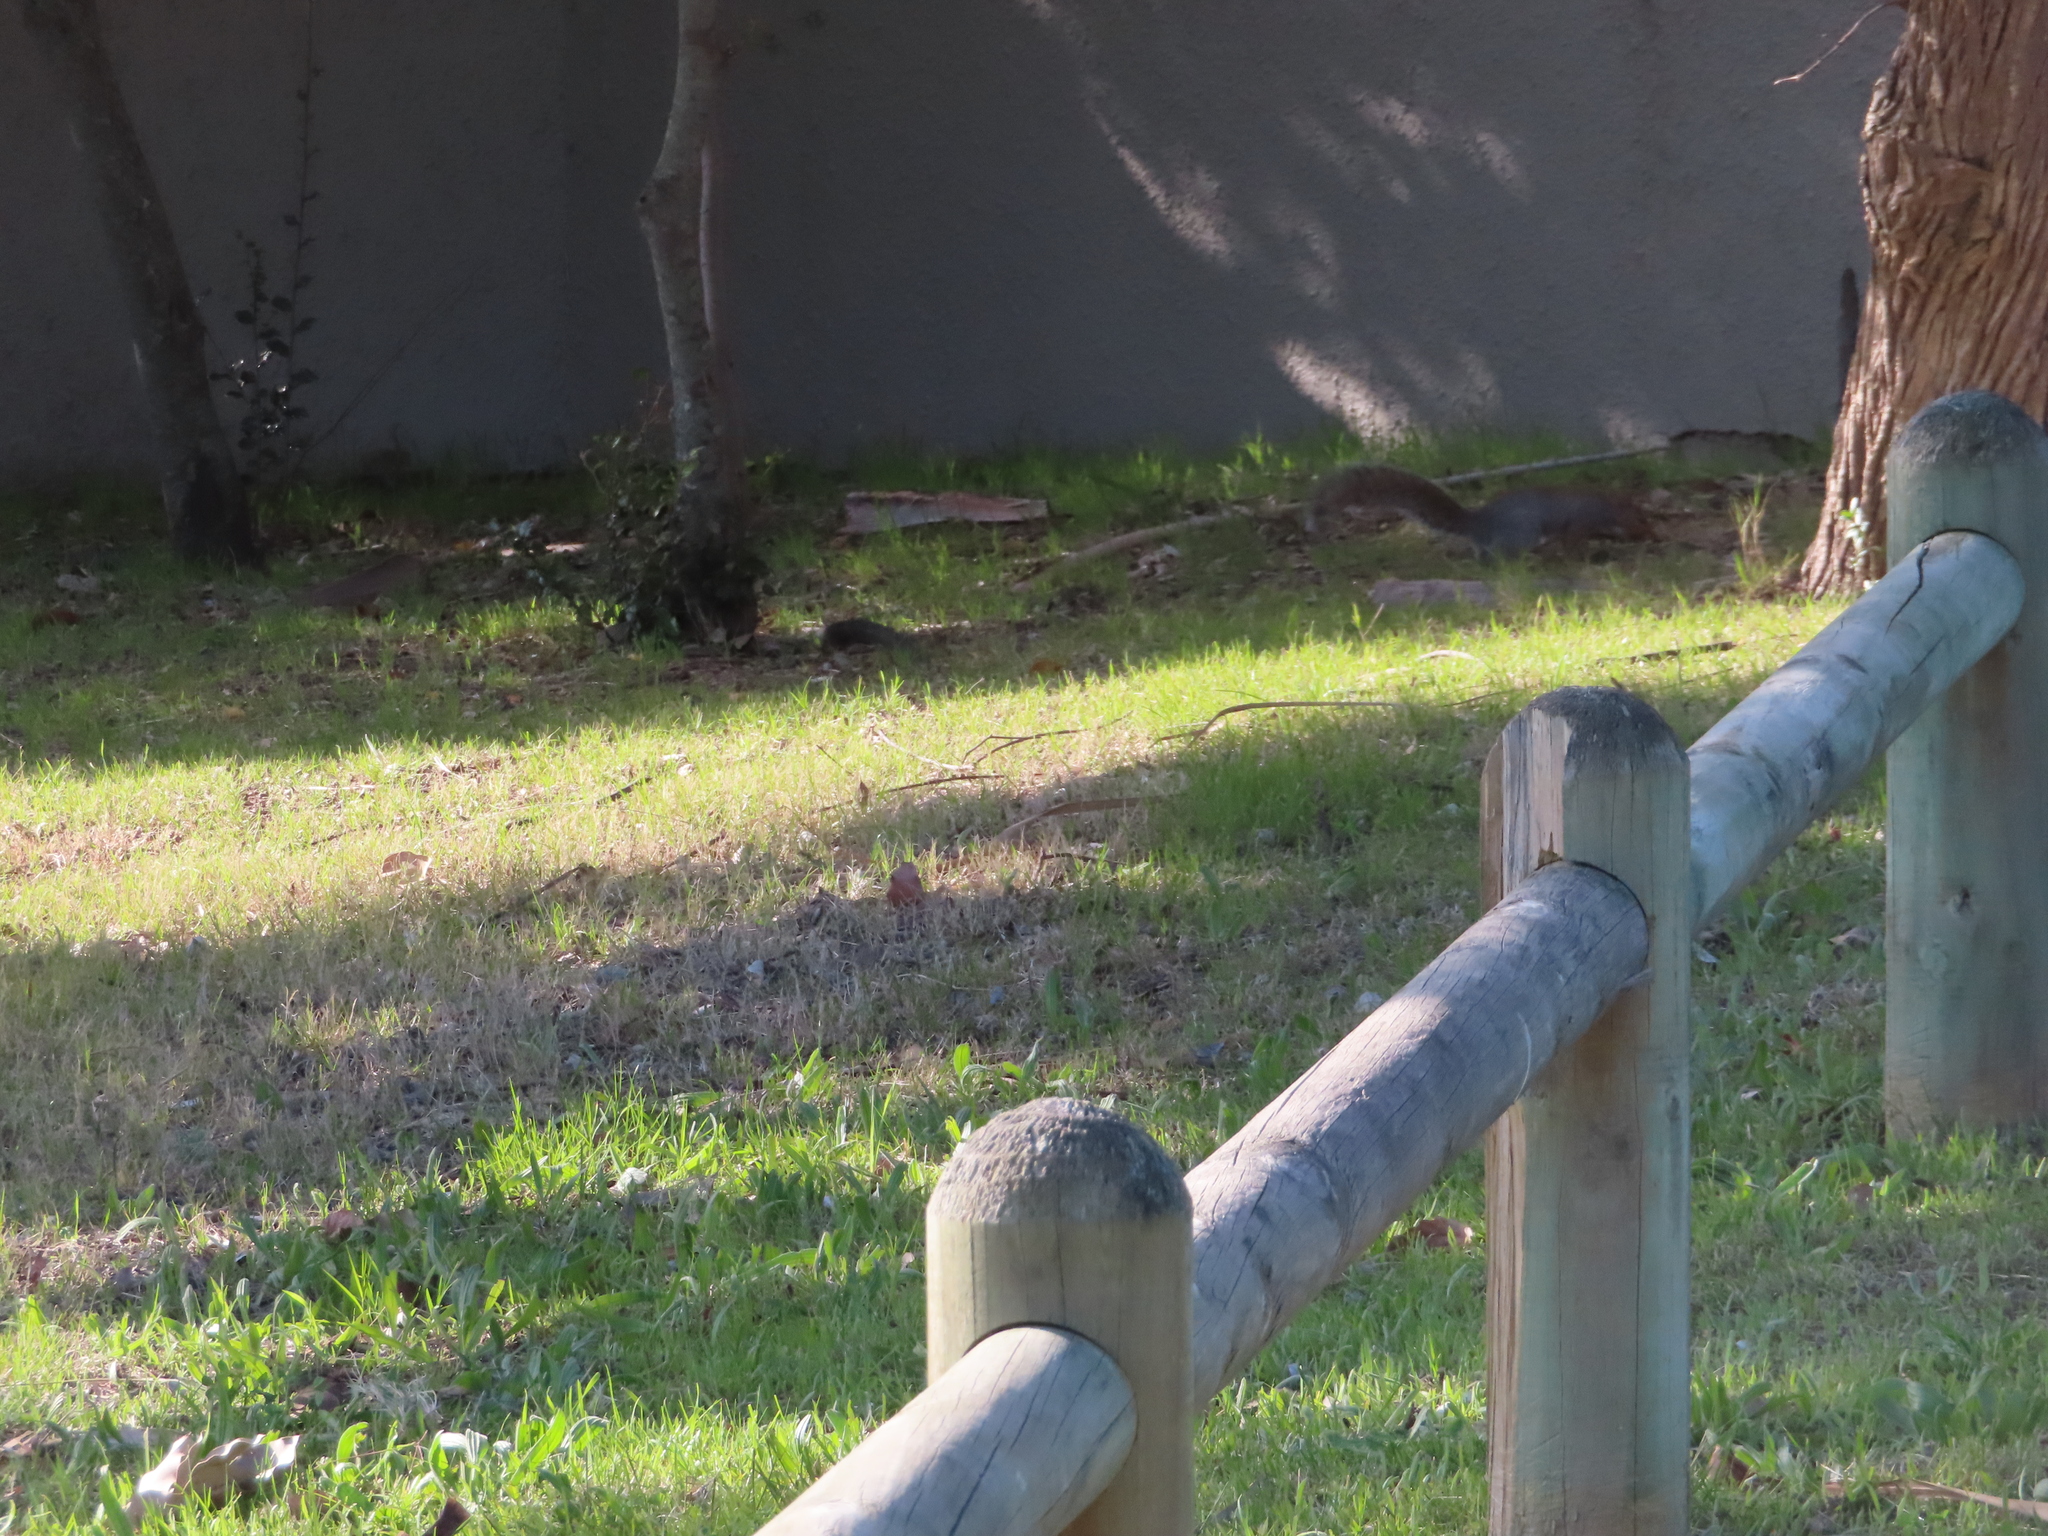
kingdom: Animalia
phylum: Chordata
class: Mammalia
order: Rodentia
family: Sciuridae
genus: Sciurus
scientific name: Sciurus carolinensis
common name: Eastern gray squirrel
